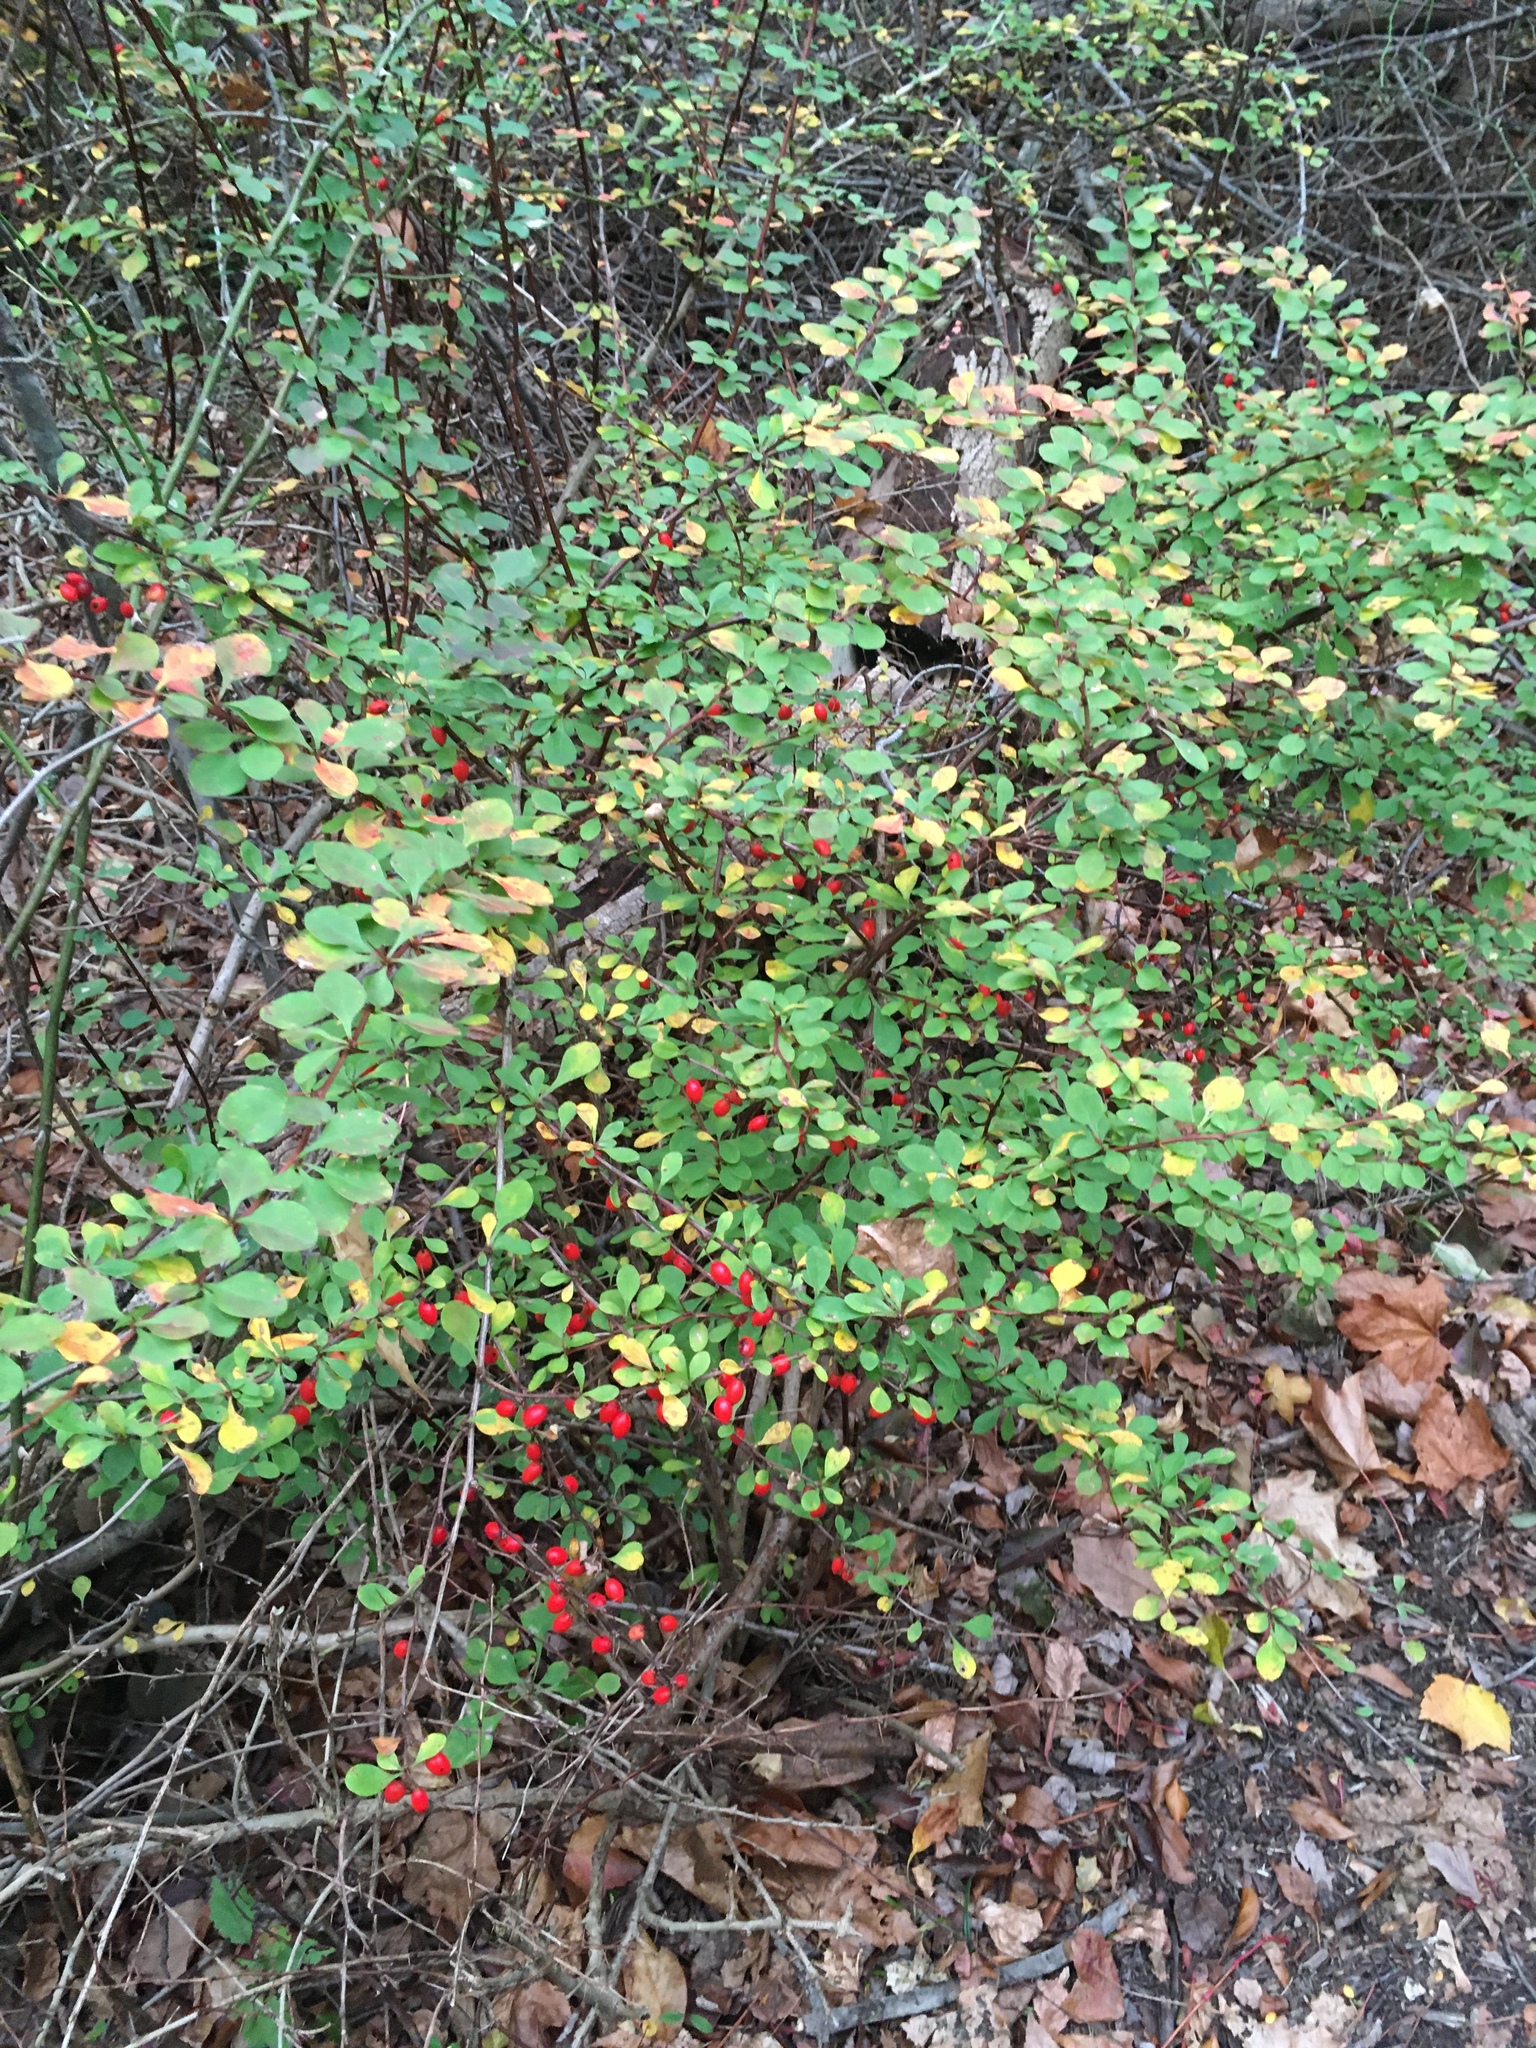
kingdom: Plantae
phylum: Tracheophyta
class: Magnoliopsida
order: Ranunculales
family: Berberidaceae
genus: Berberis
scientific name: Berberis thunbergii
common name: Japanese barberry
